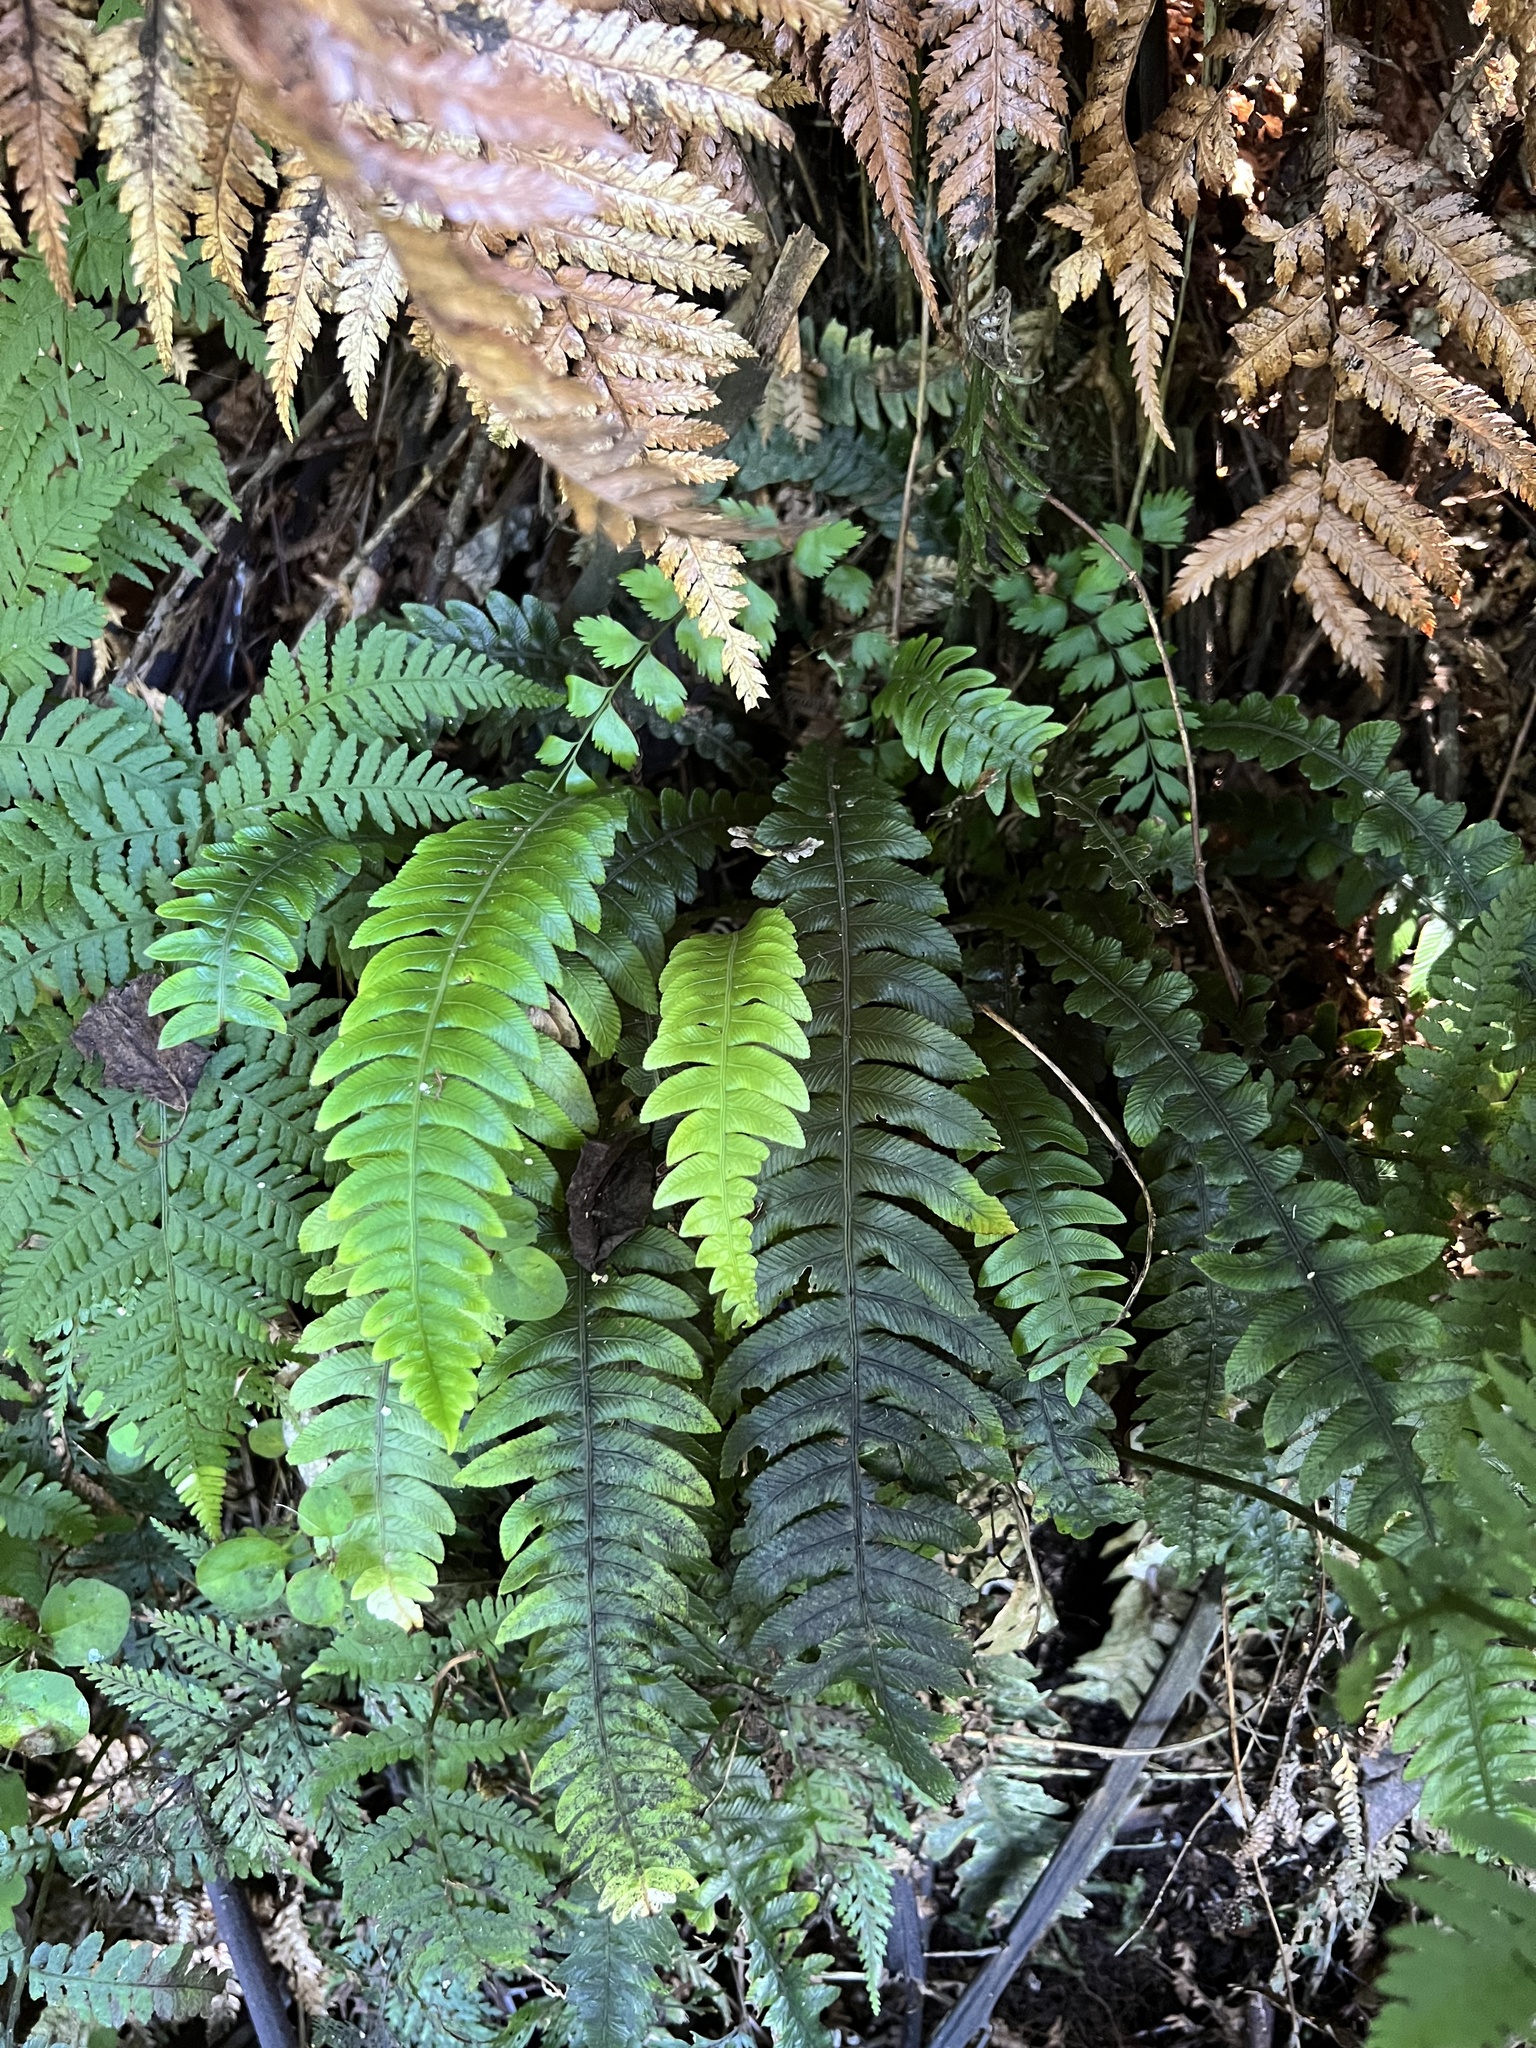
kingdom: Plantae
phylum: Tracheophyta
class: Polypodiopsida
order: Polypodiales
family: Blechnaceae
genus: Austroblechnum
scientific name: Austroblechnum lanceolatum
